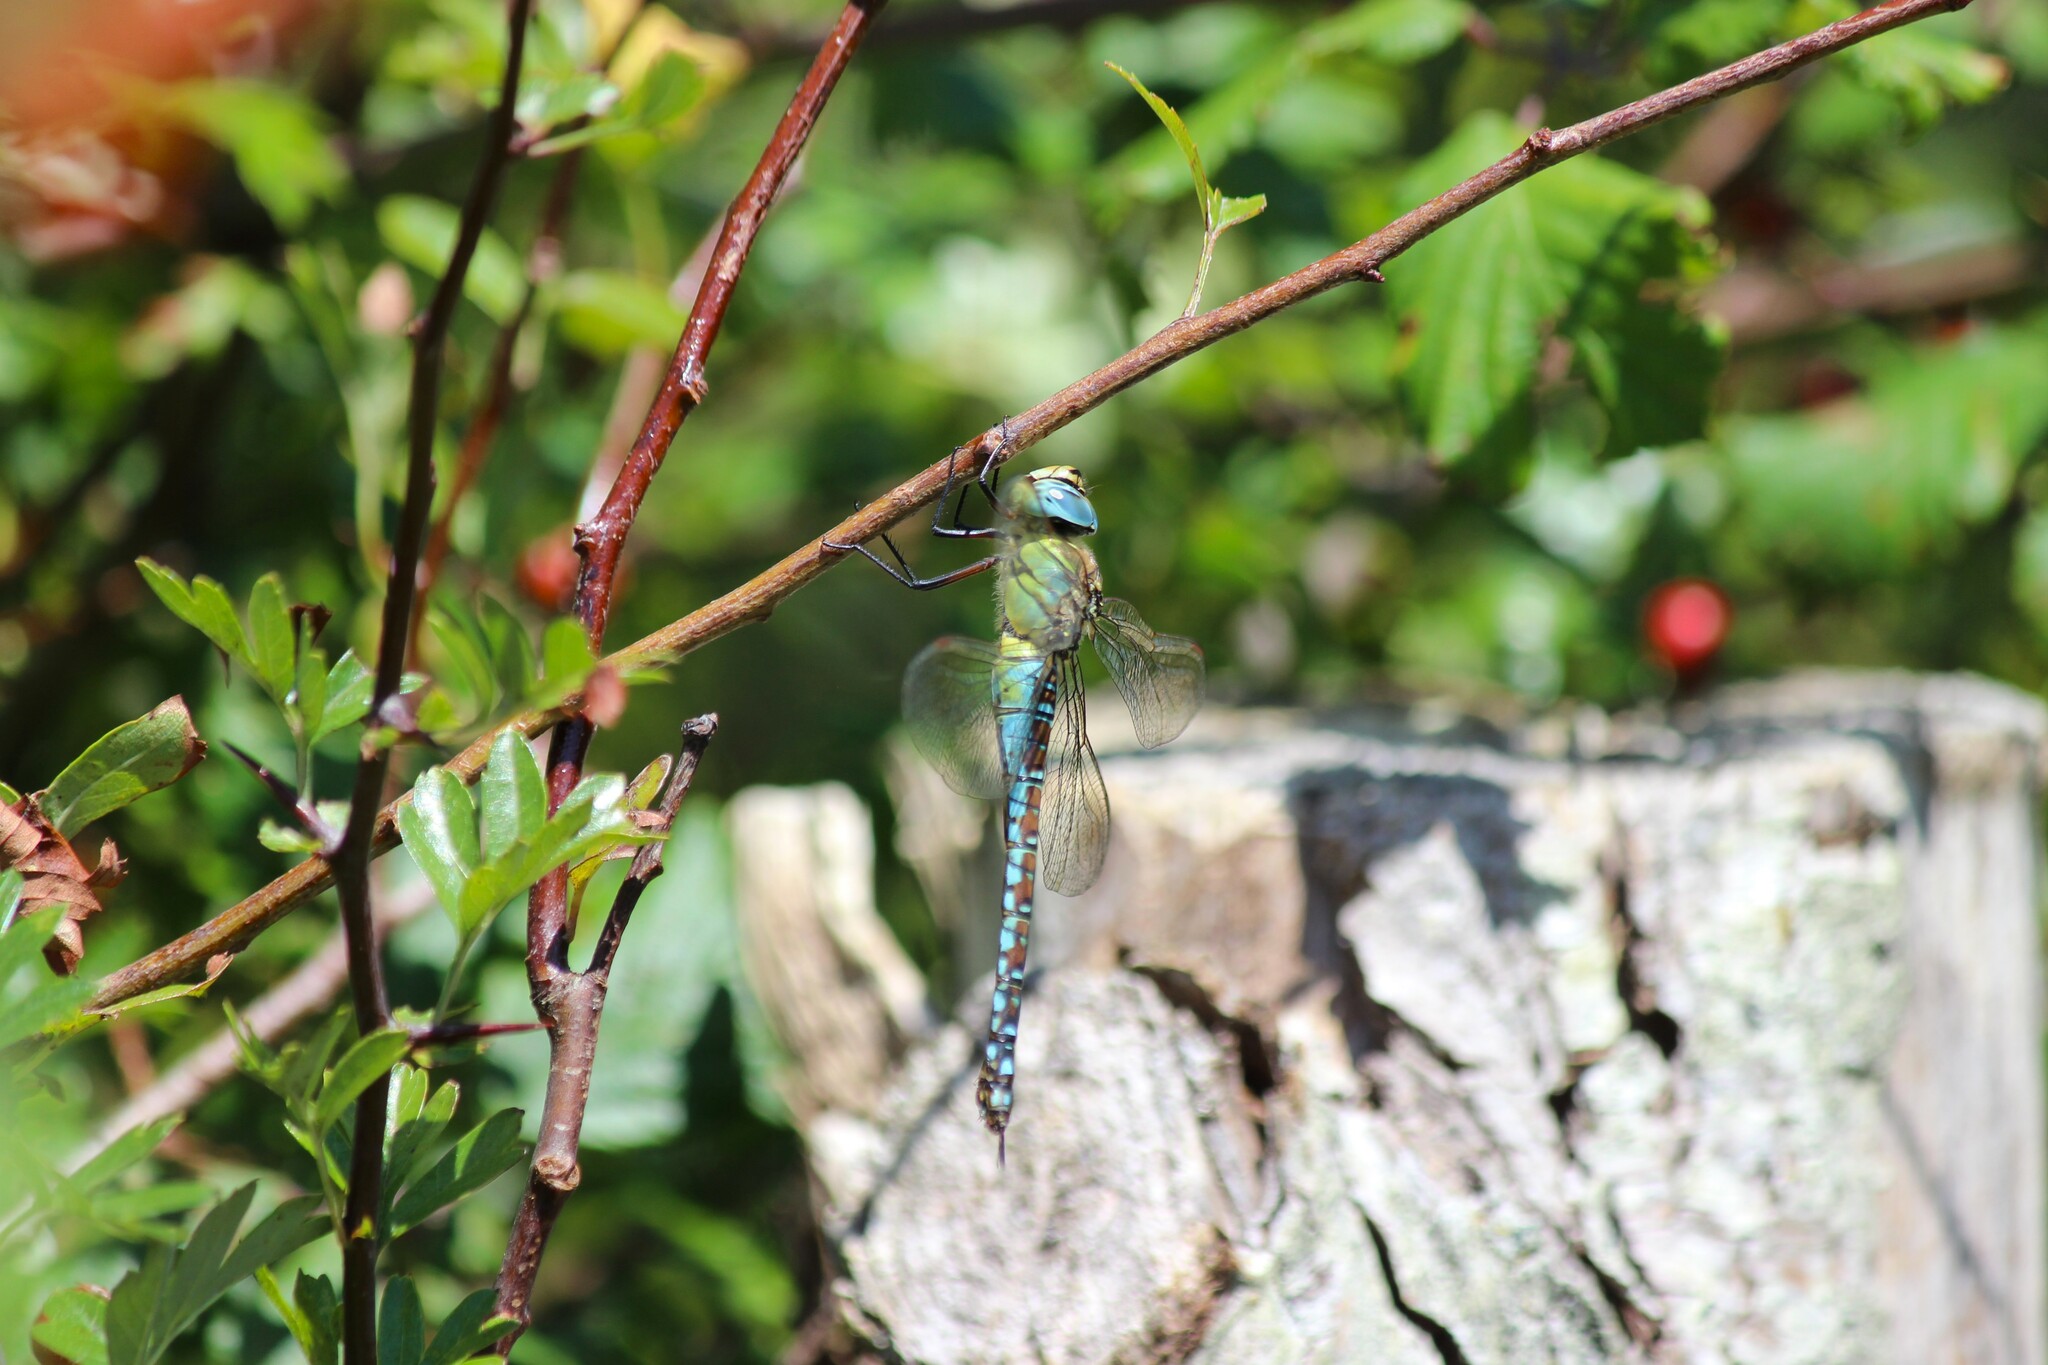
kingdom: Animalia
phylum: Arthropoda
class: Insecta
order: Odonata
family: Aeshnidae
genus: Aeshna
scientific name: Aeshna affinis
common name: Southern migrant hawker
